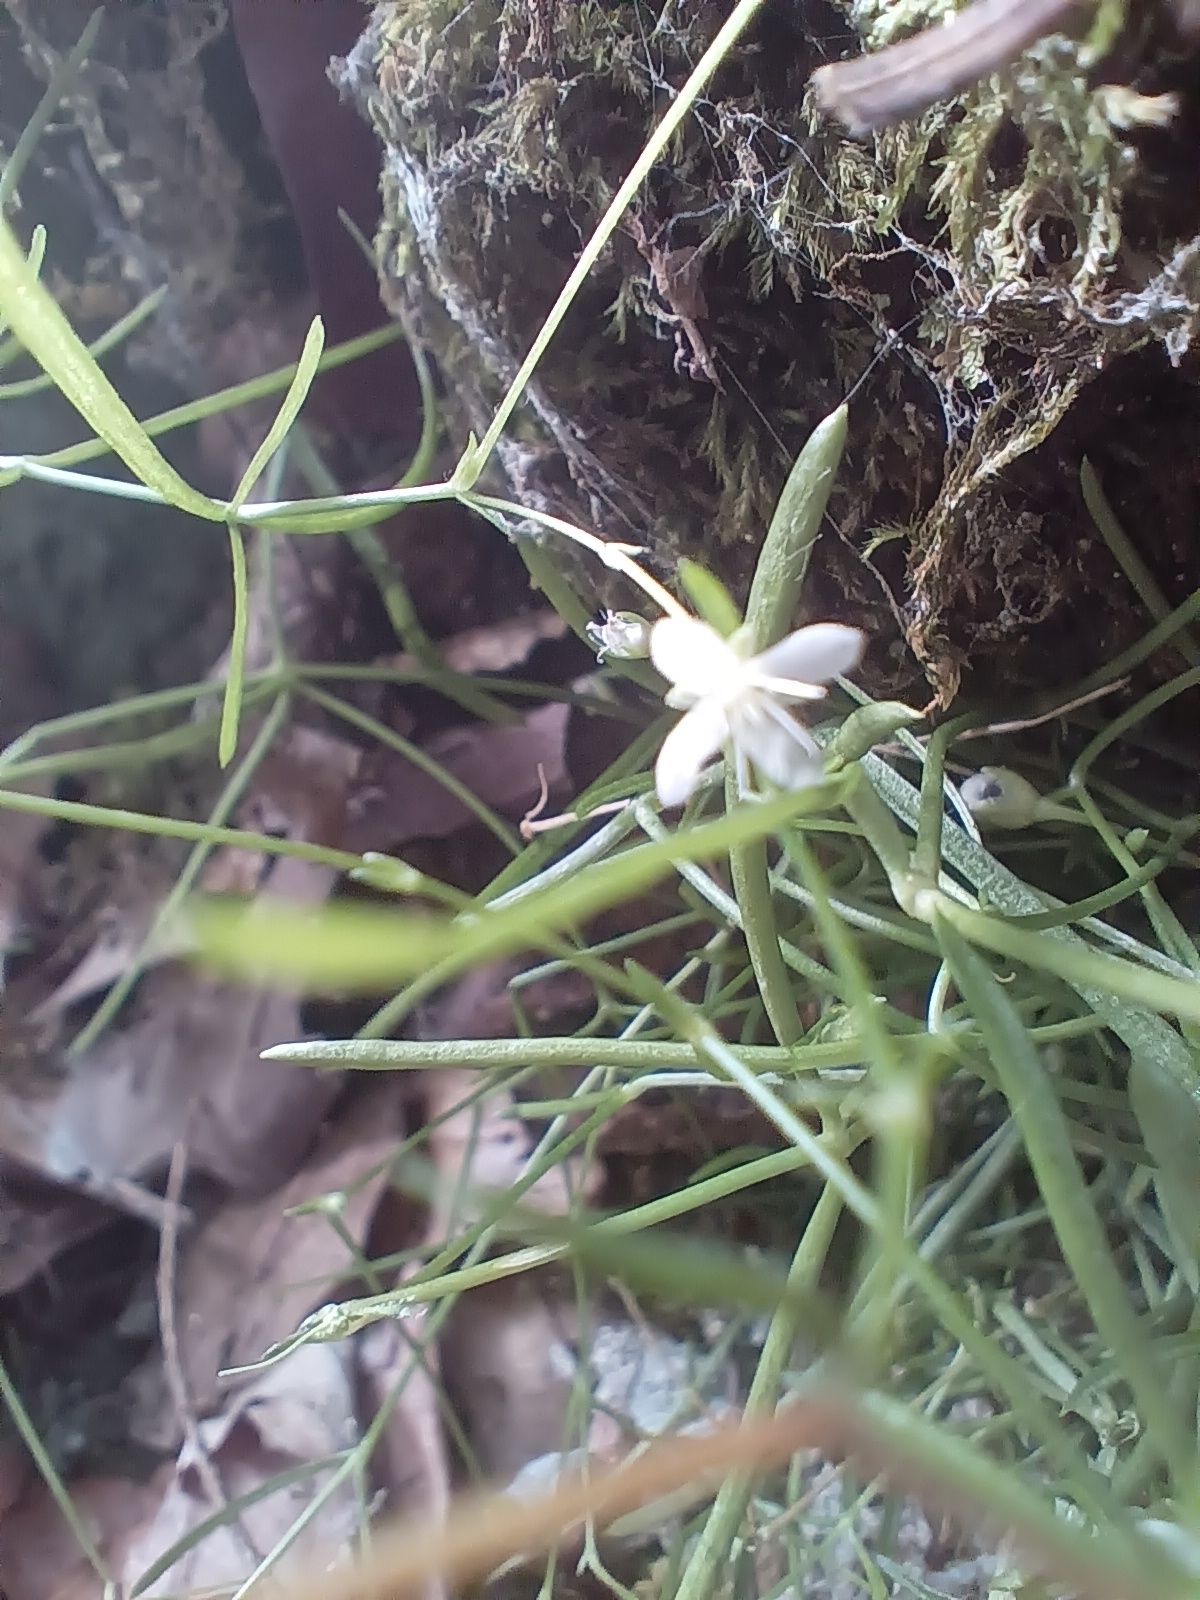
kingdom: Plantae
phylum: Tracheophyta
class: Magnoliopsida
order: Caryophyllales
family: Caryophyllaceae
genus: Moehringia
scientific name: Moehringia muscosa
